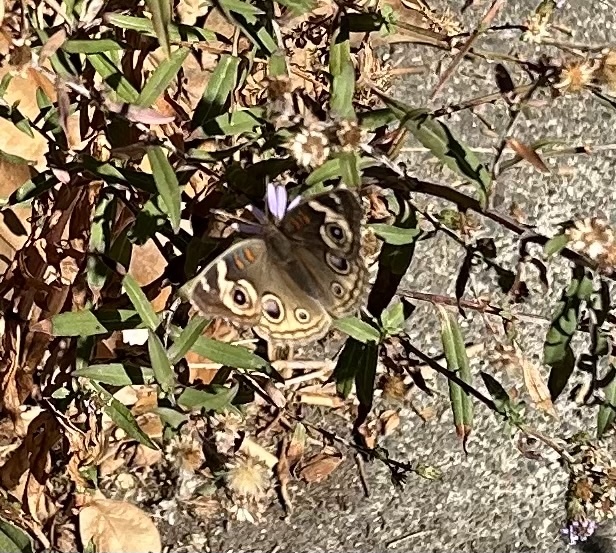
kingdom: Animalia
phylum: Arthropoda
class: Insecta
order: Lepidoptera
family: Nymphalidae
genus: Junonia
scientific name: Junonia grisea
